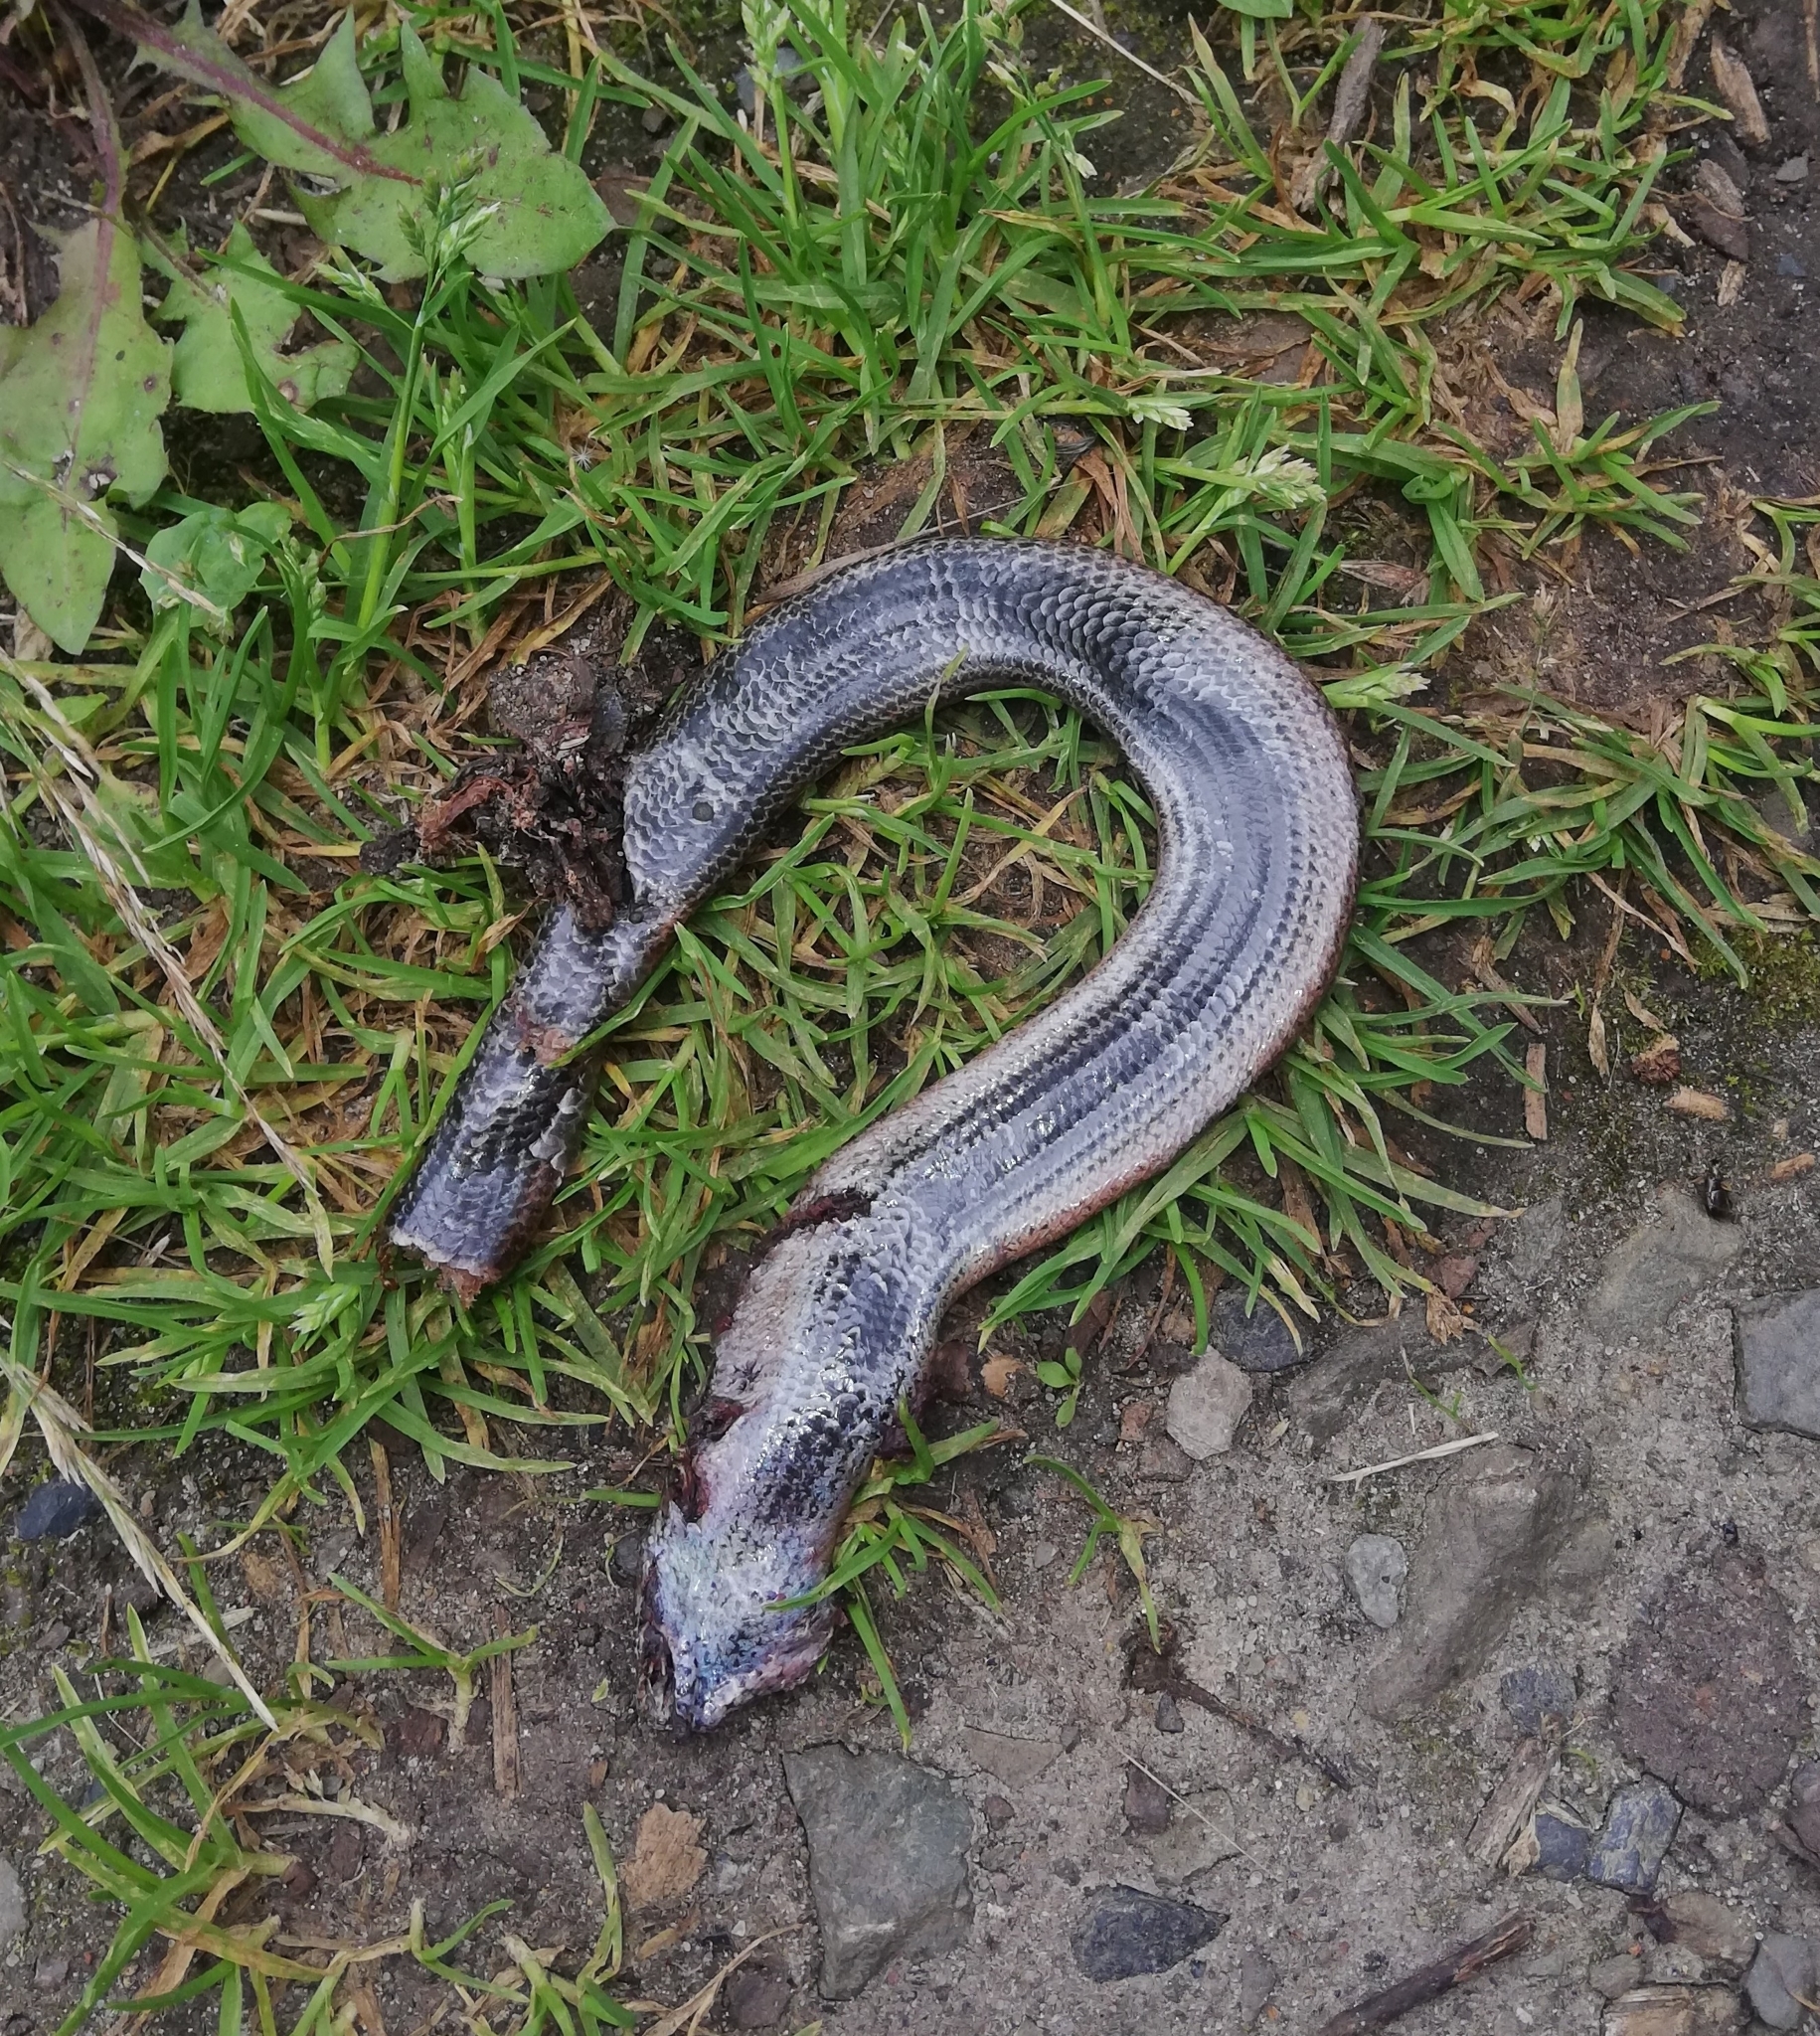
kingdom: Animalia
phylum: Chordata
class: Squamata
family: Anguidae
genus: Anguis
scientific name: Anguis fragilis
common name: Slow worm
